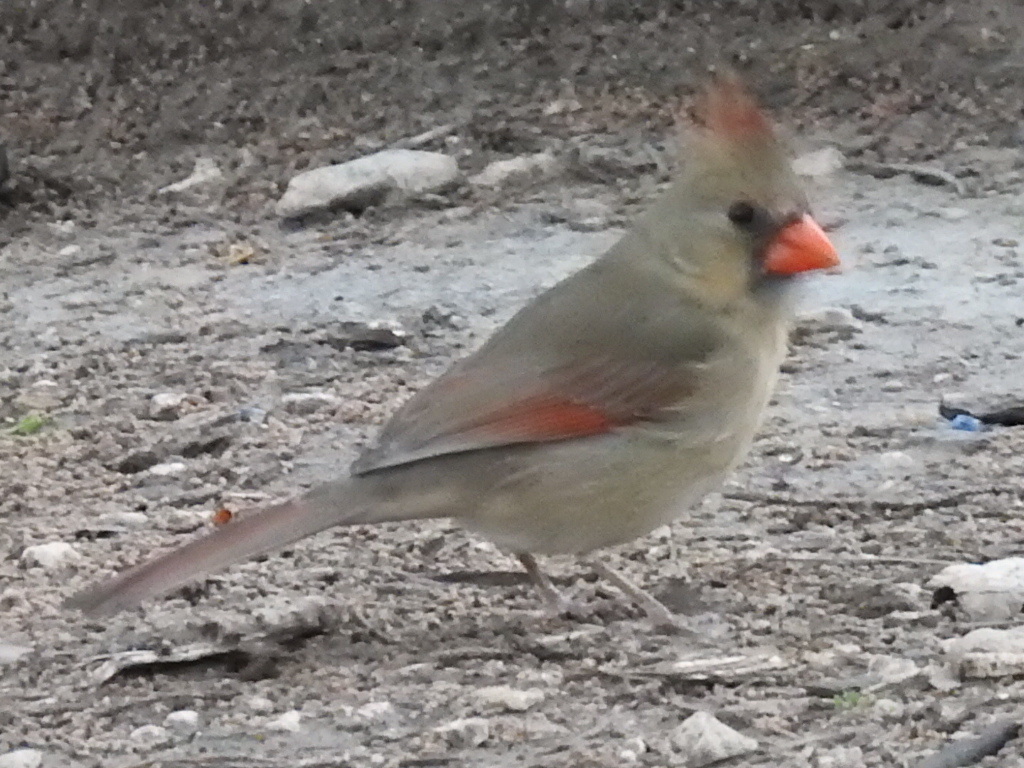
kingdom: Animalia
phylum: Chordata
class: Aves
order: Passeriformes
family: Cardinalidae
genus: Cardinalis
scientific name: Cardinalis cardinalis
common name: Northern cardinal
